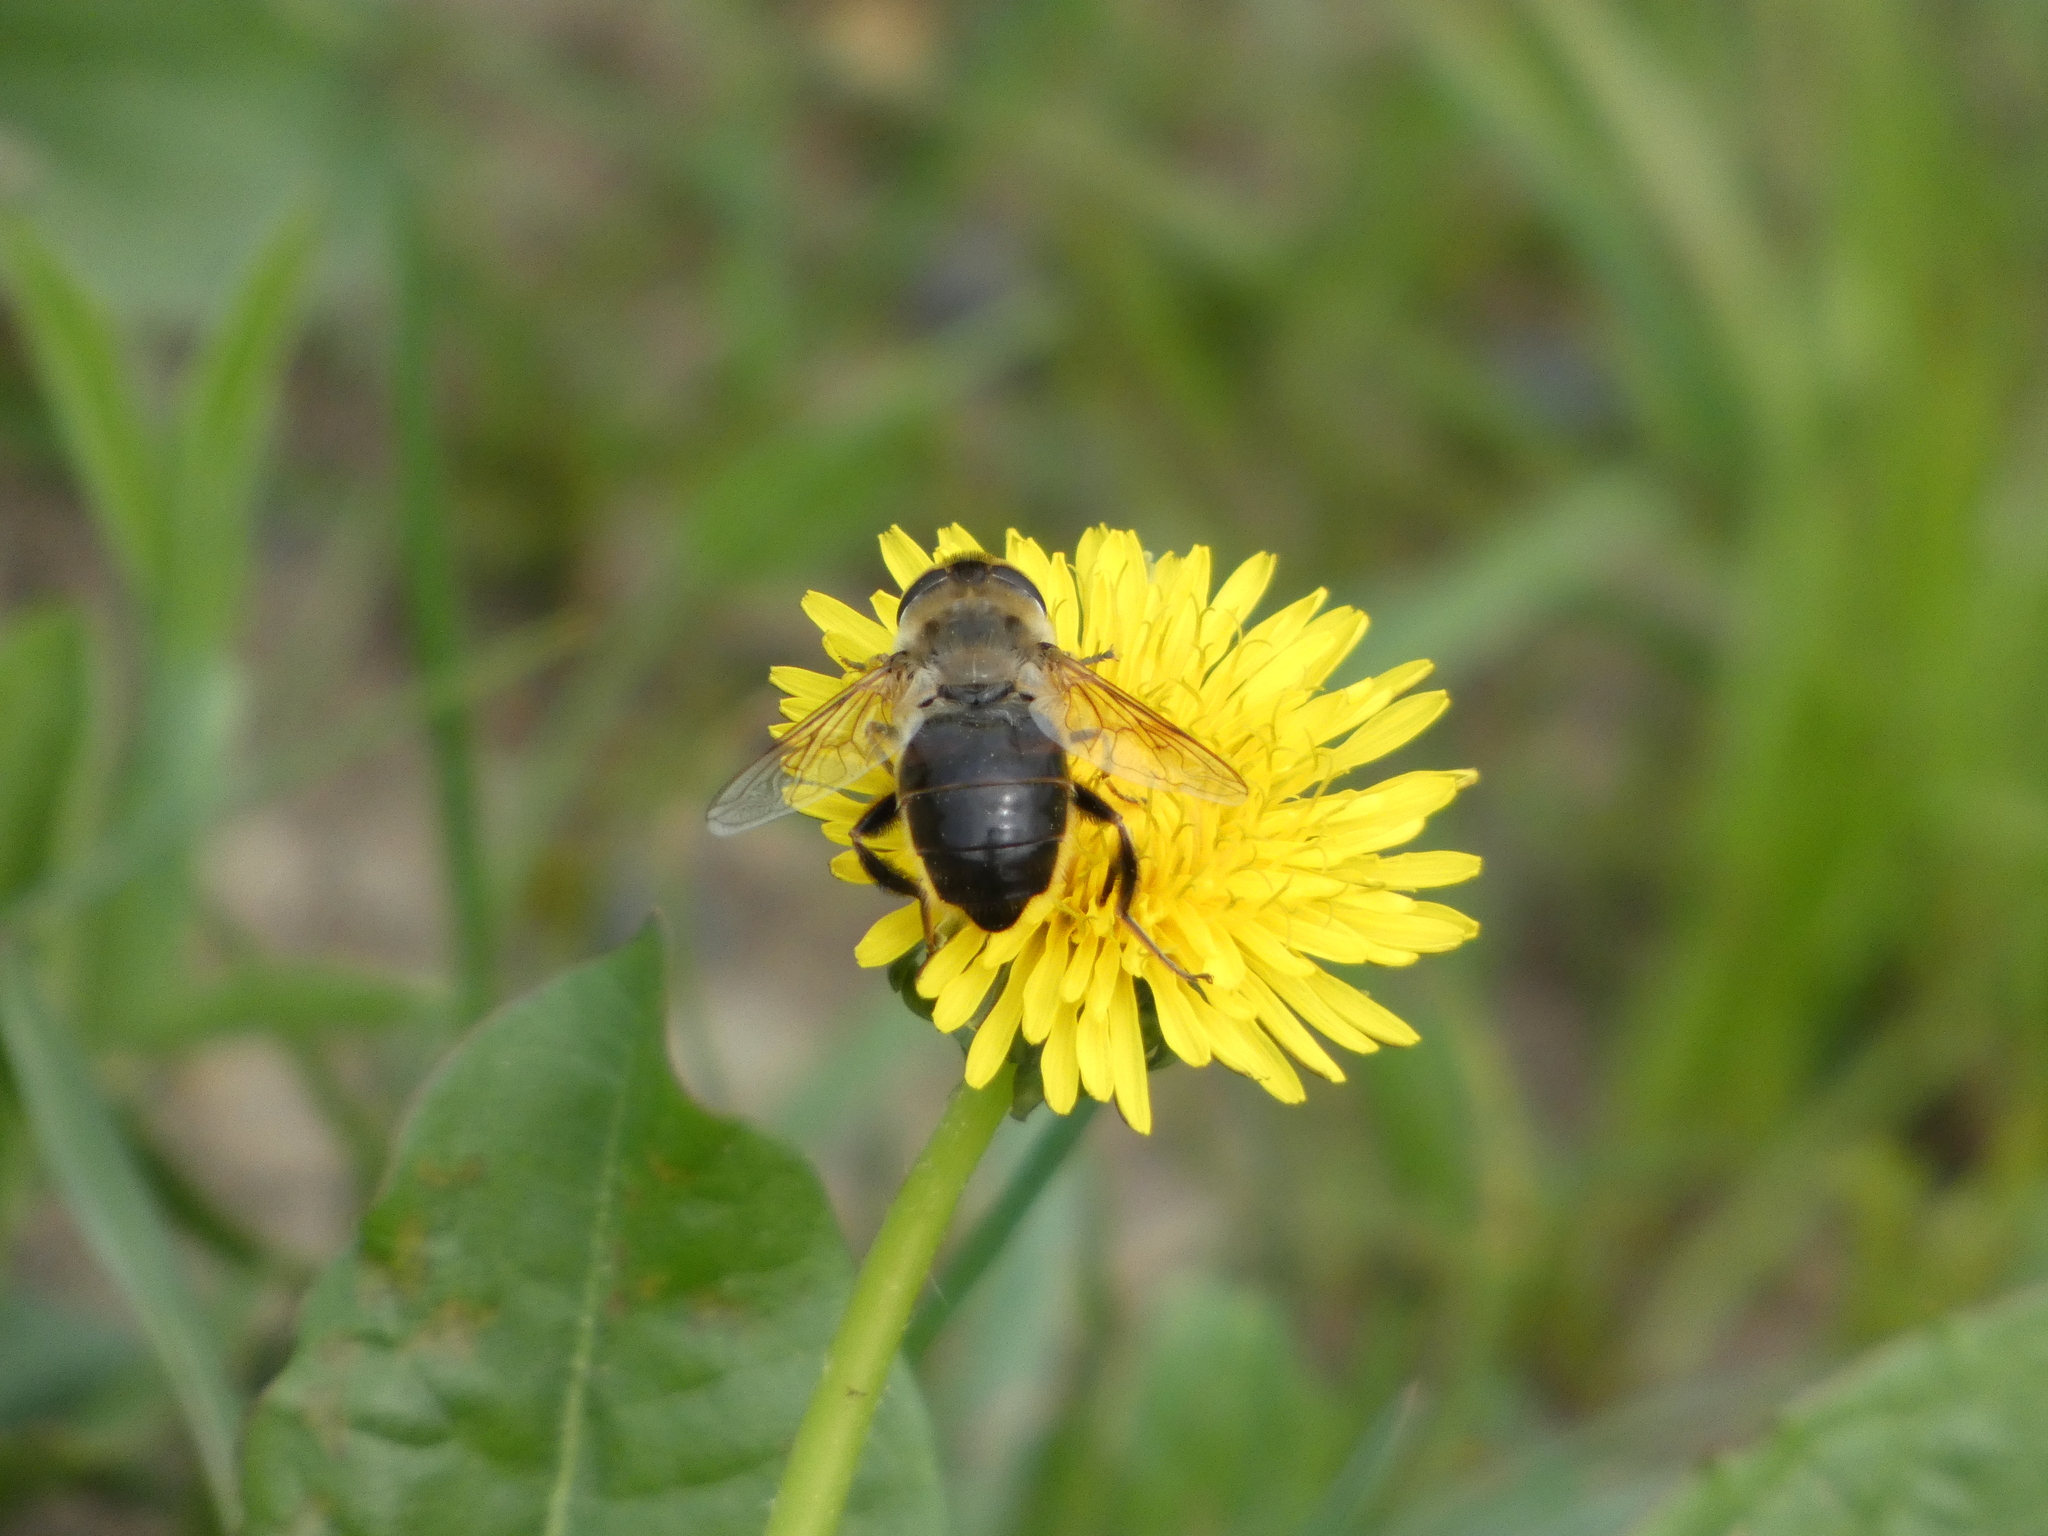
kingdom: Animalia
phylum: Arthropoda
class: Insecta
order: Diptera
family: Syrphidae
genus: Eristalis
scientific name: Eristalis tenax
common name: Drone fly
